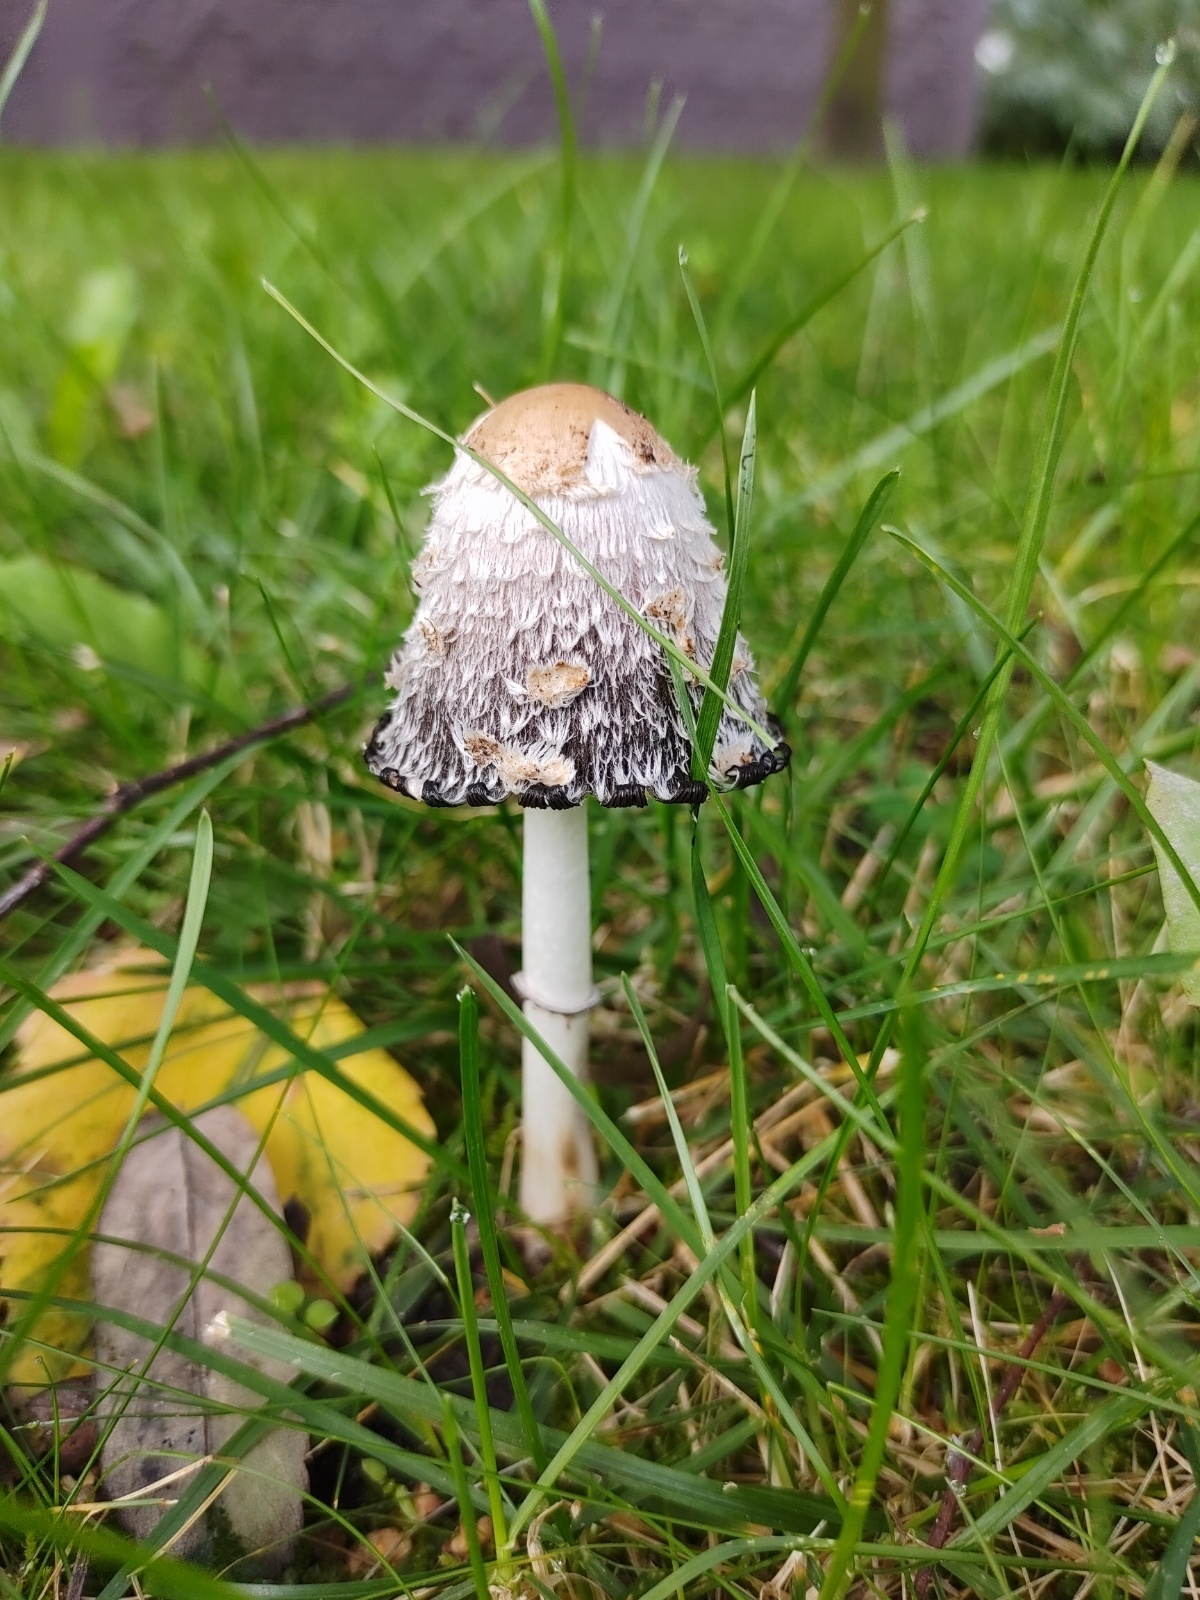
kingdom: Fungi
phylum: Basidiomycota
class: Agaricomycetes
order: Agaricales
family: Agaricaceae
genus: Coprinus
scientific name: Coprinus comatus
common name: Lawyer's wig
